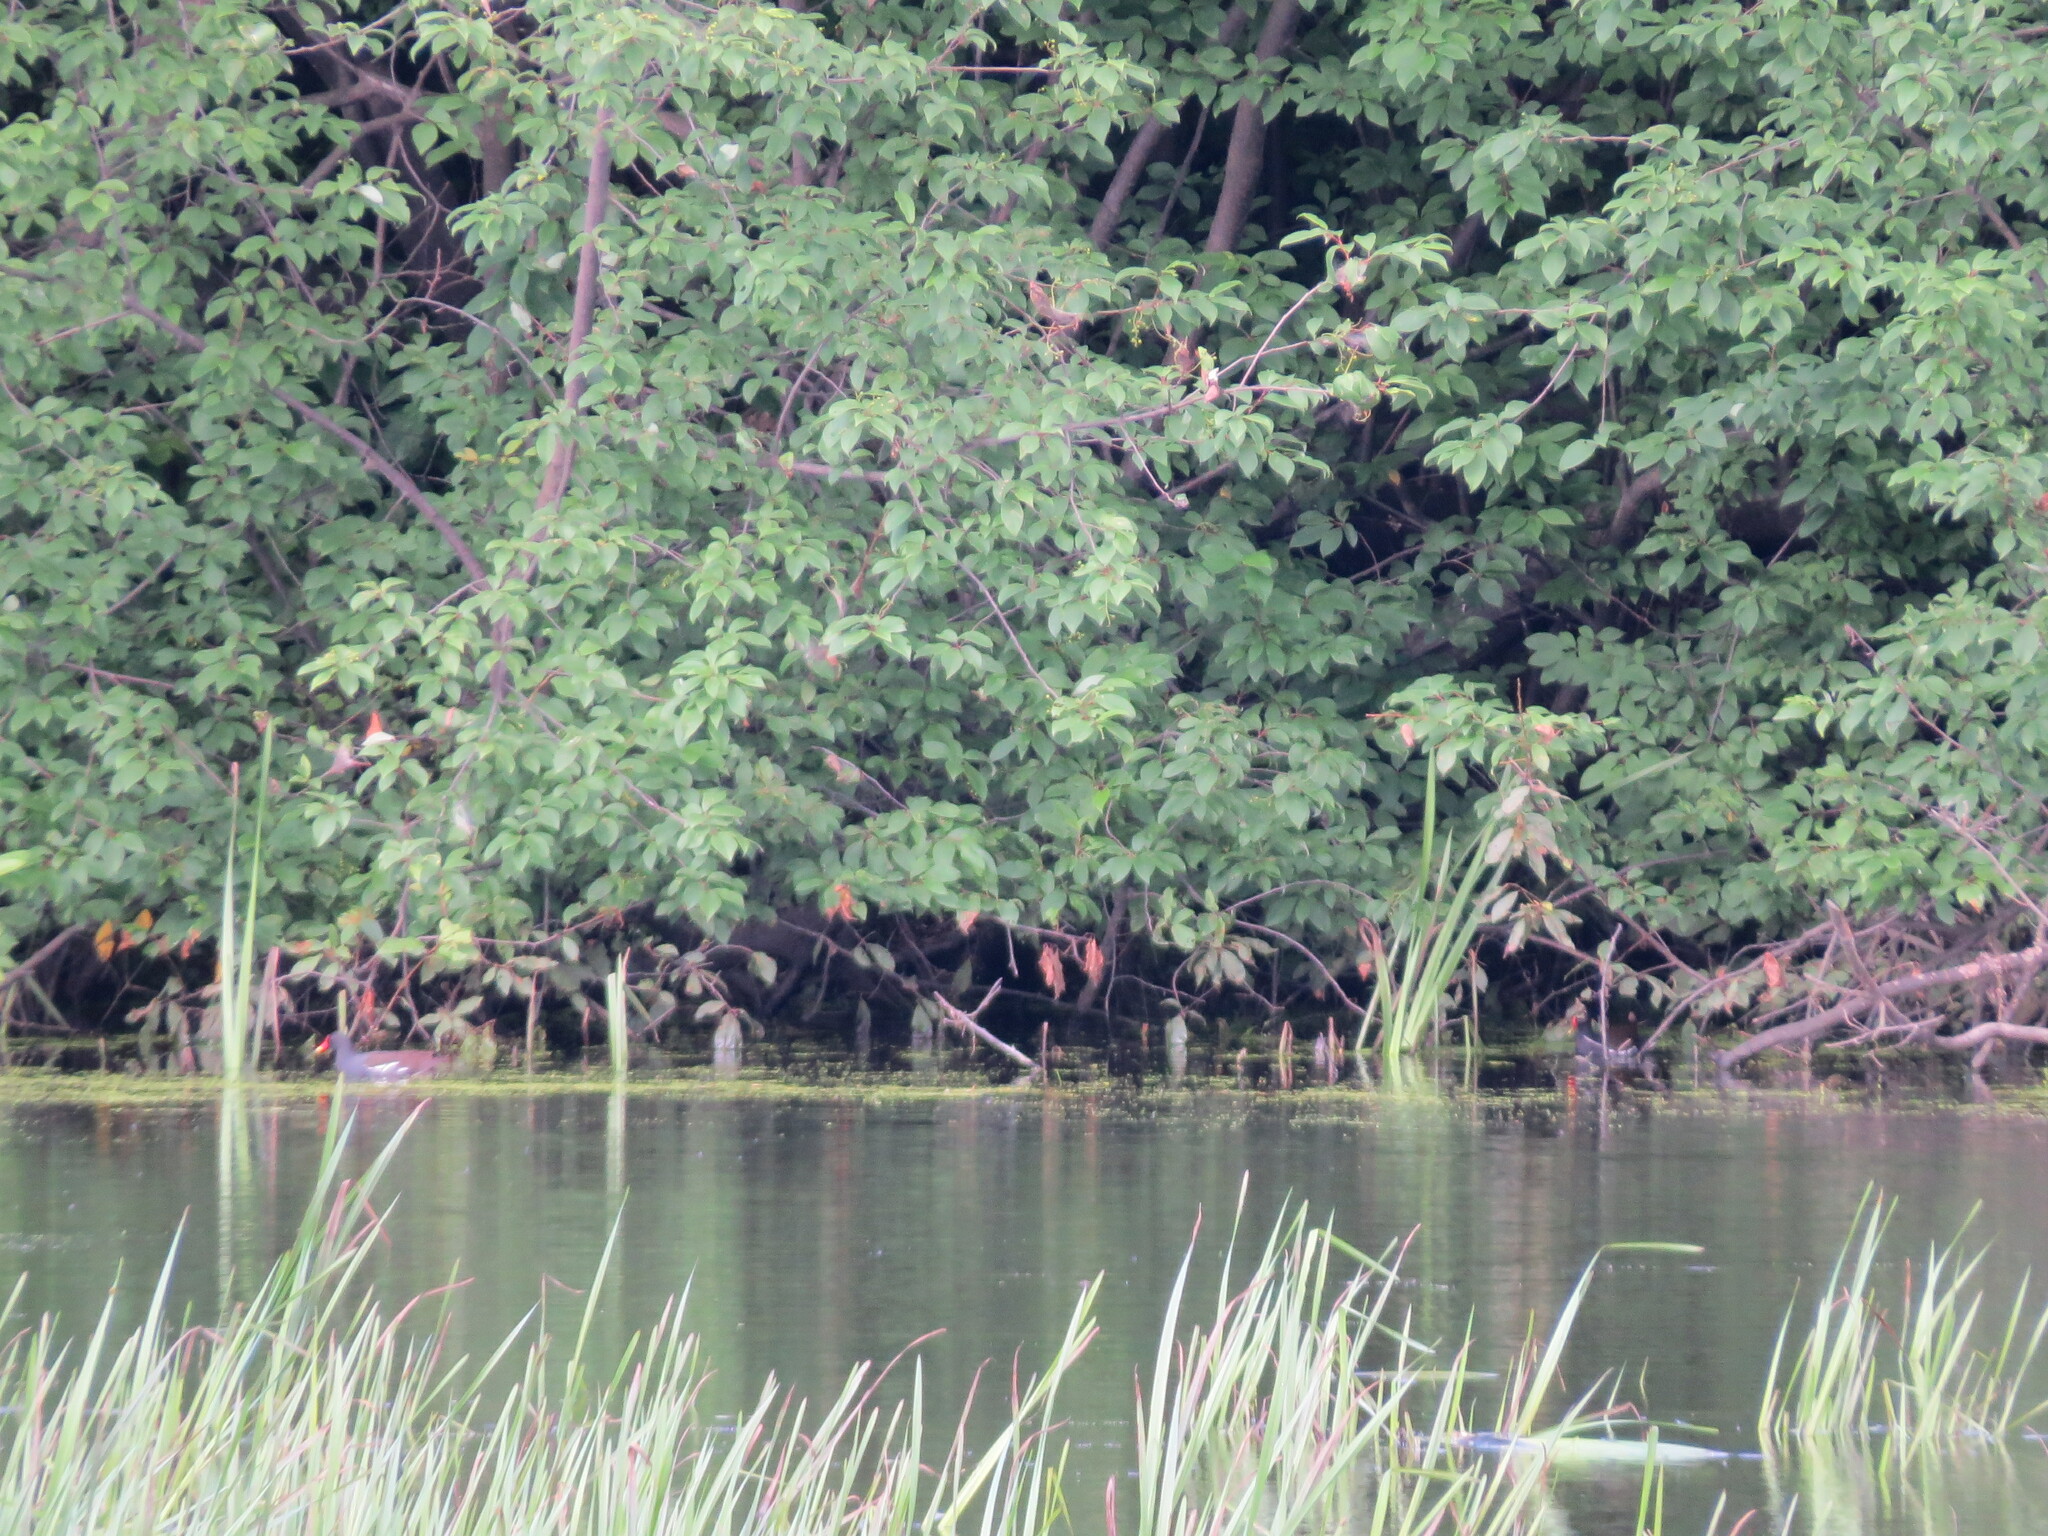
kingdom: Animalia
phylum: Chordata
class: Aves
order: Gruiformes
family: Rallidae
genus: Gallinula
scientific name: Gallinula chloropus
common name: Common moorhen
